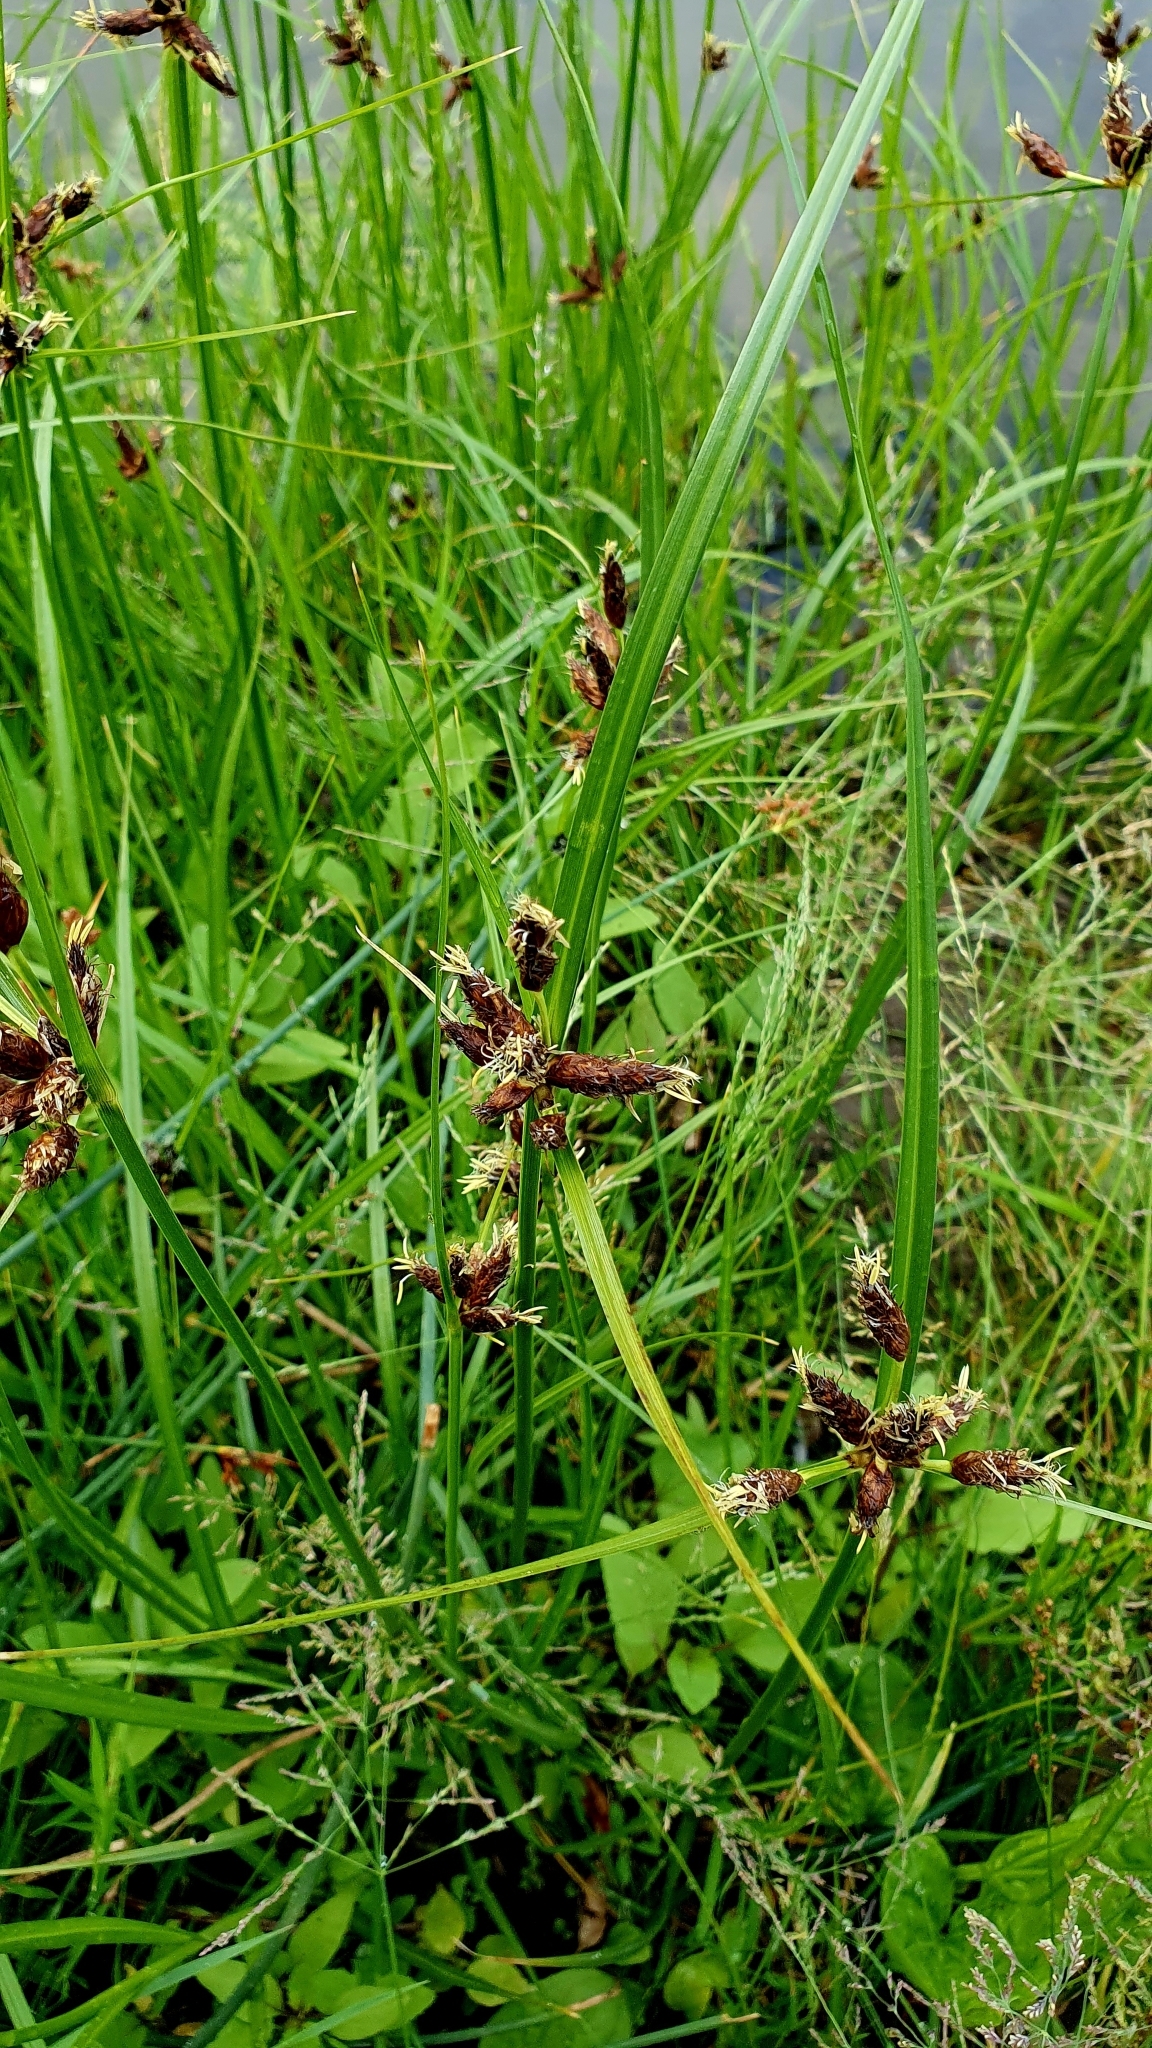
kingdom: Plantae
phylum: Tracheophyta
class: Liliopsida
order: Poales
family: Cyperaceae
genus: Bolboschoenus
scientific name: Bolboschoenus maritimus
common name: Sea club-rush
